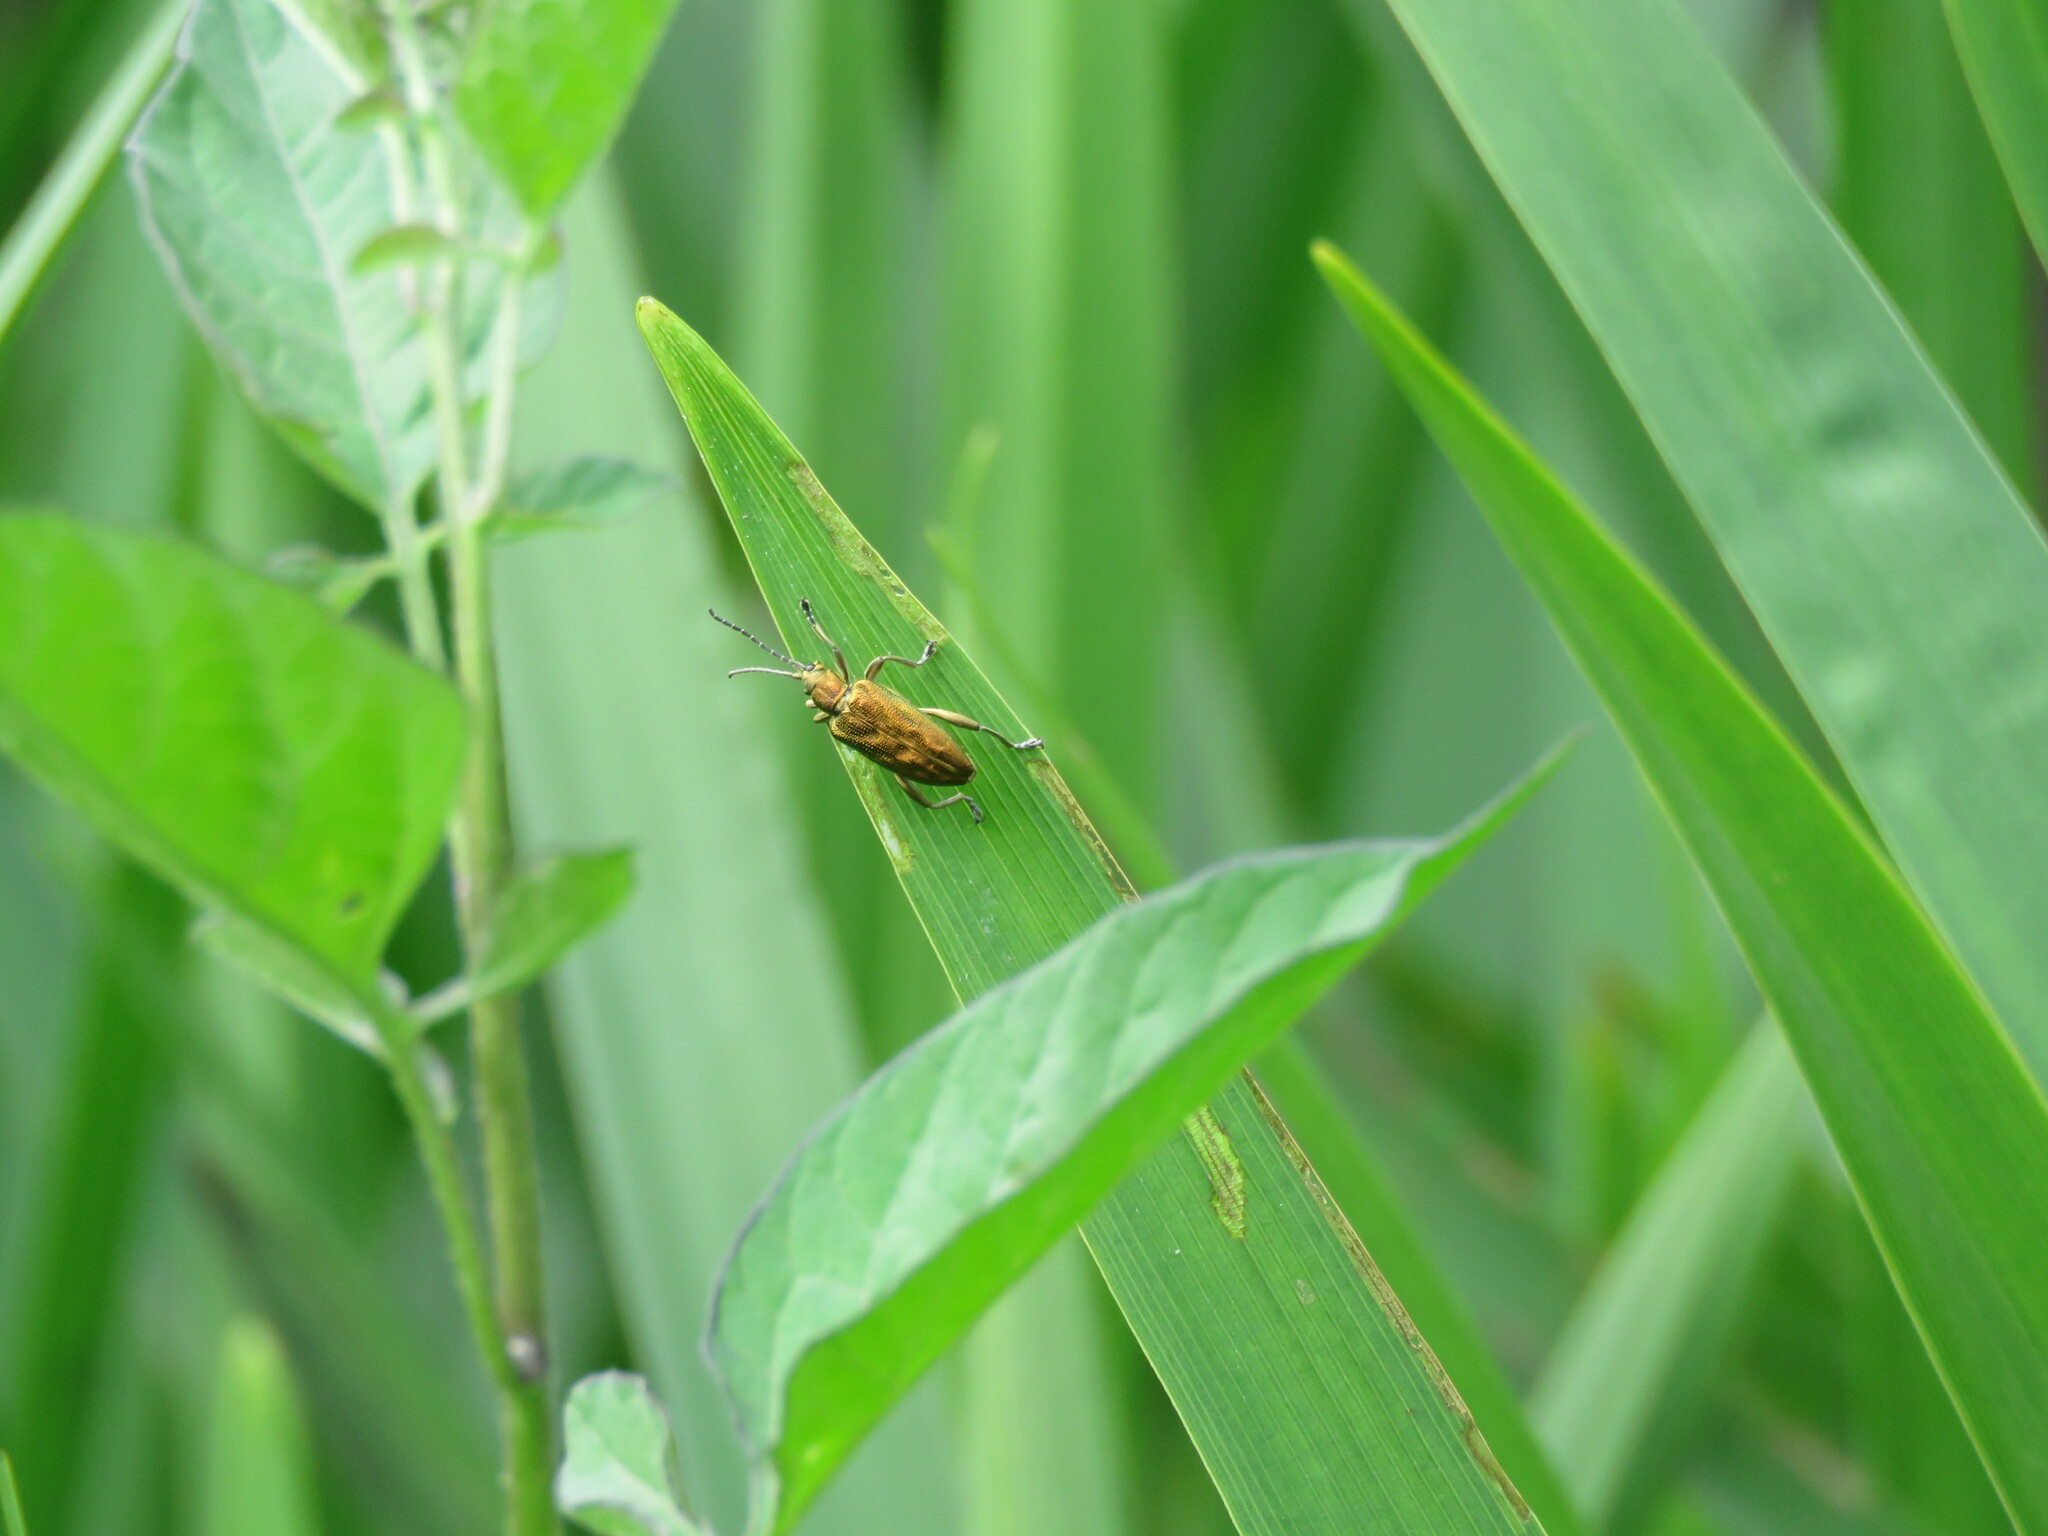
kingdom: Animalia
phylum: Arthropoda
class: Insecta
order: Coleoptera
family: Chrysomelidae
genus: Donacia
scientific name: Donacia bicolora
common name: Reed beetle
